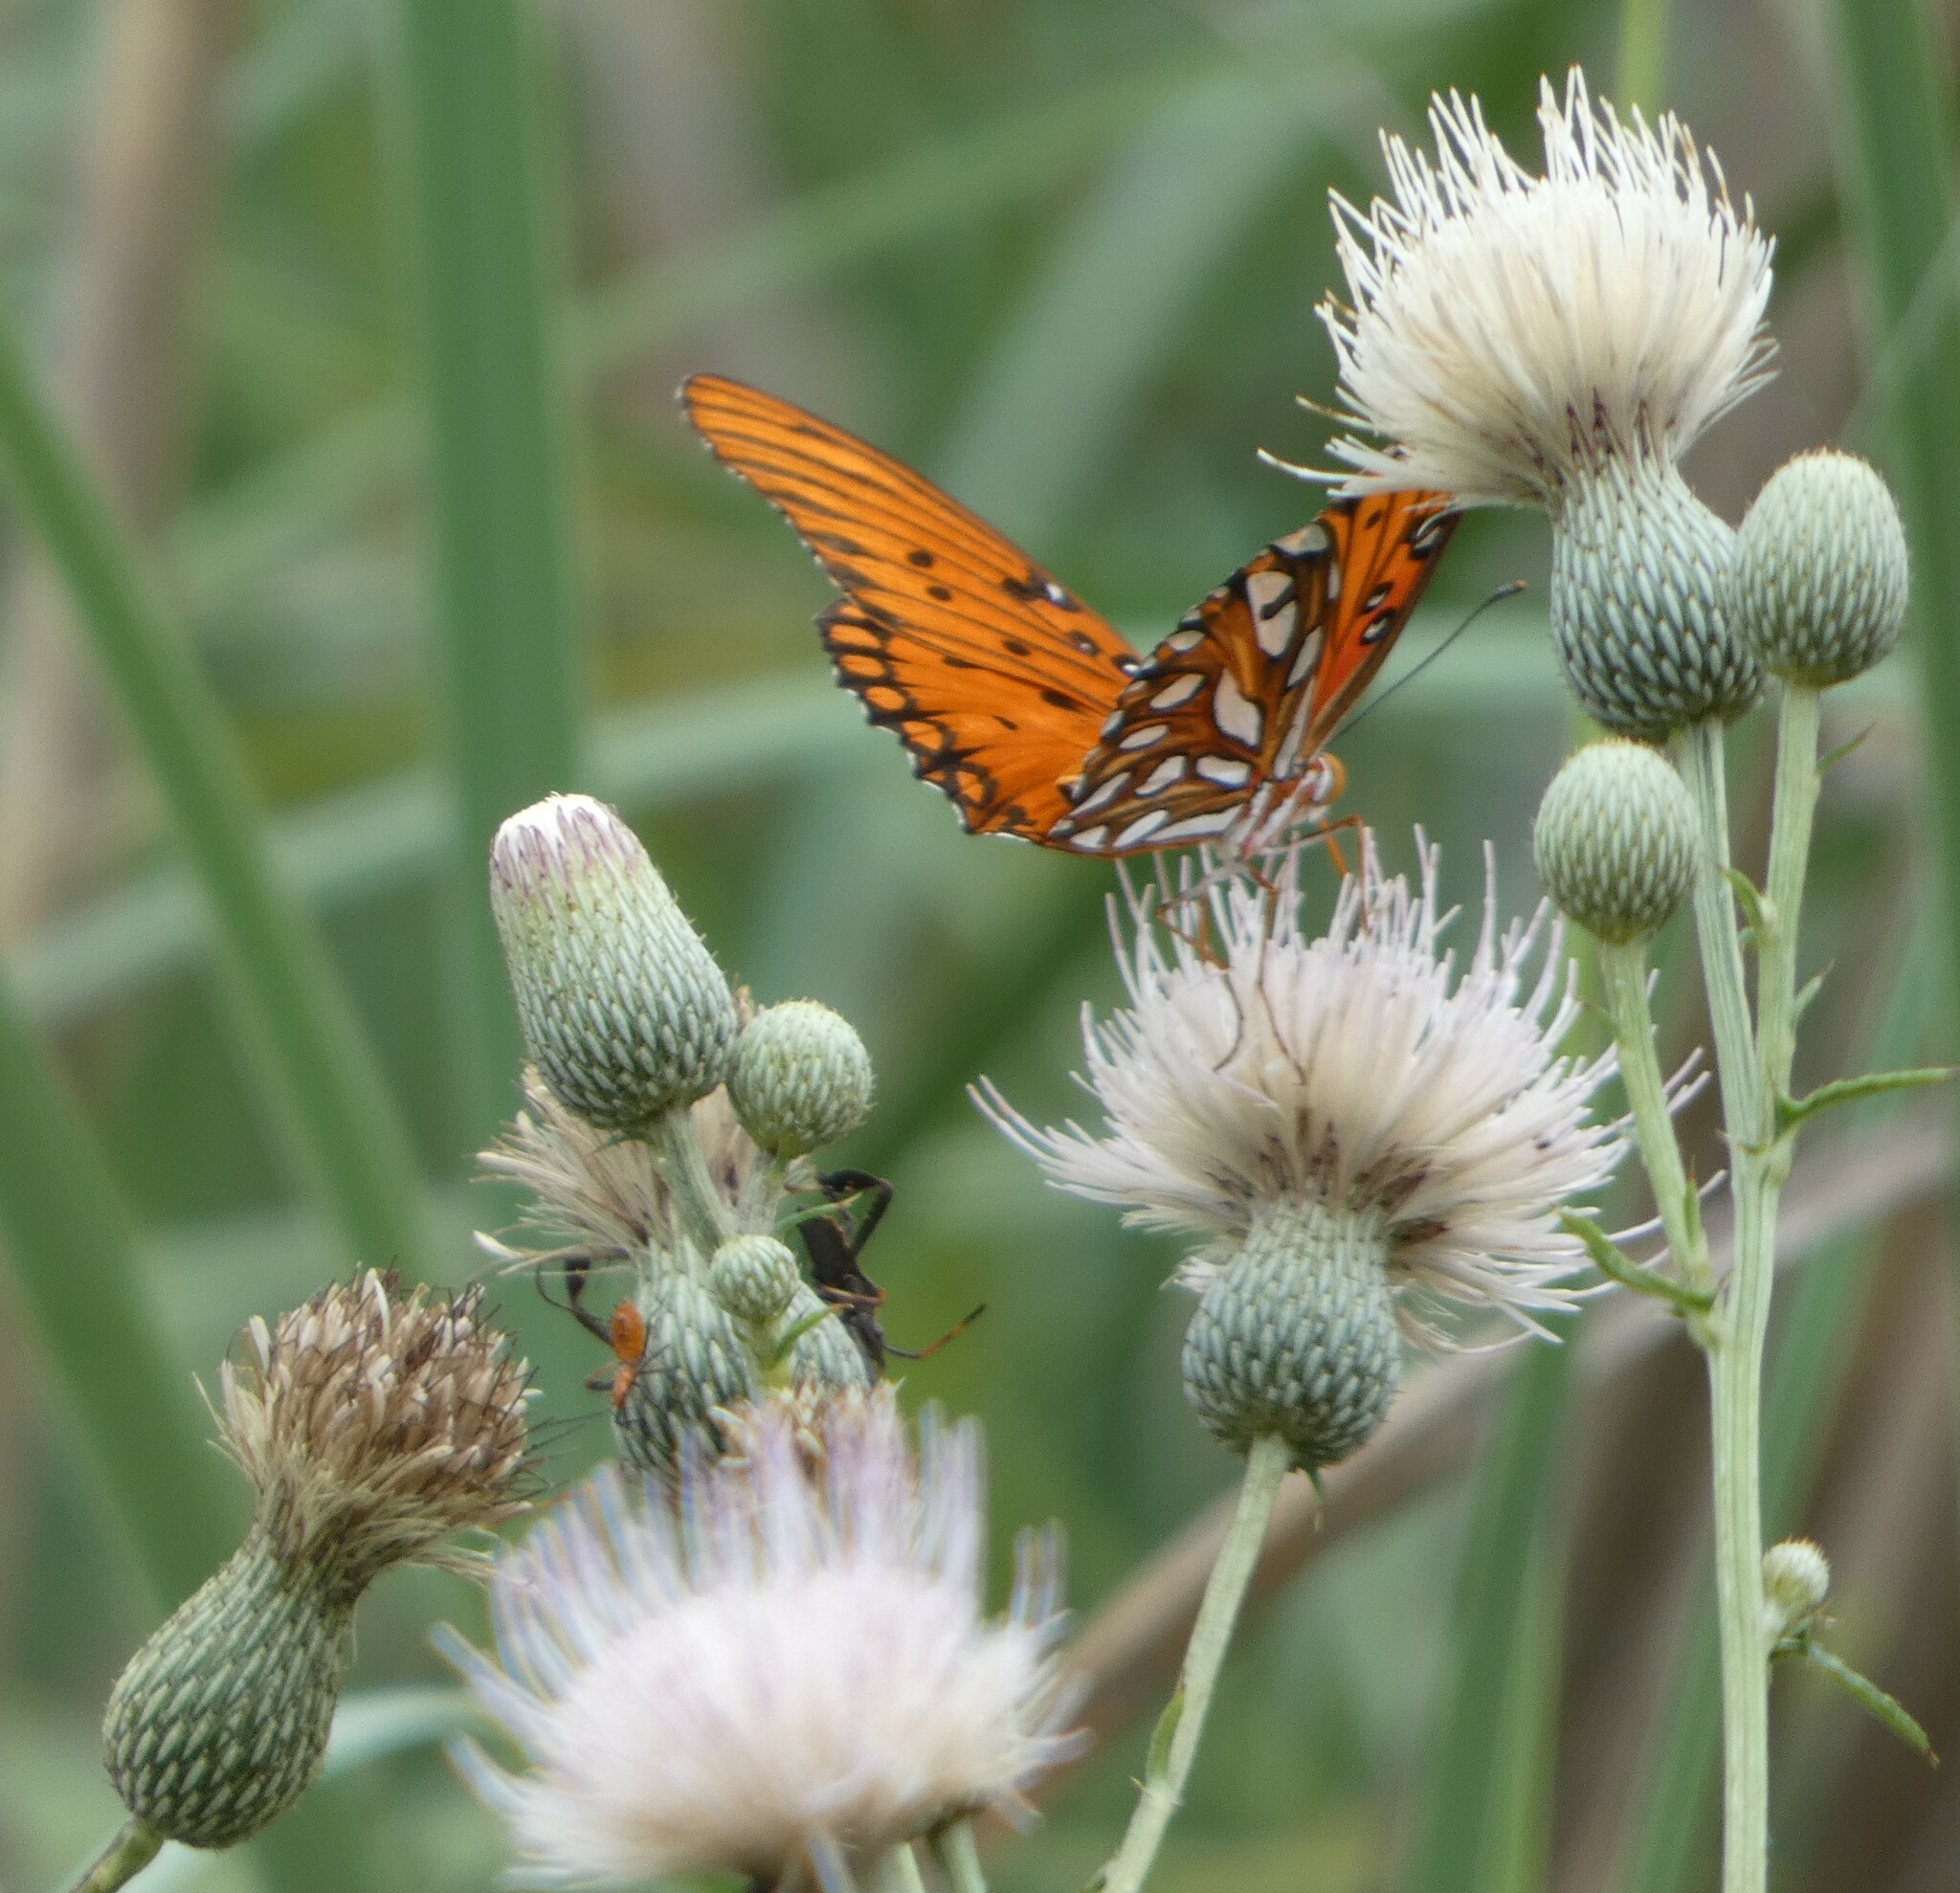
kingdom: Animalia
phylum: Arthropoda
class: Insecta
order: Lepidoptera
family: Nymphalidae
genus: Dione
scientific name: Dione vanillae
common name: Gulf fritillary
